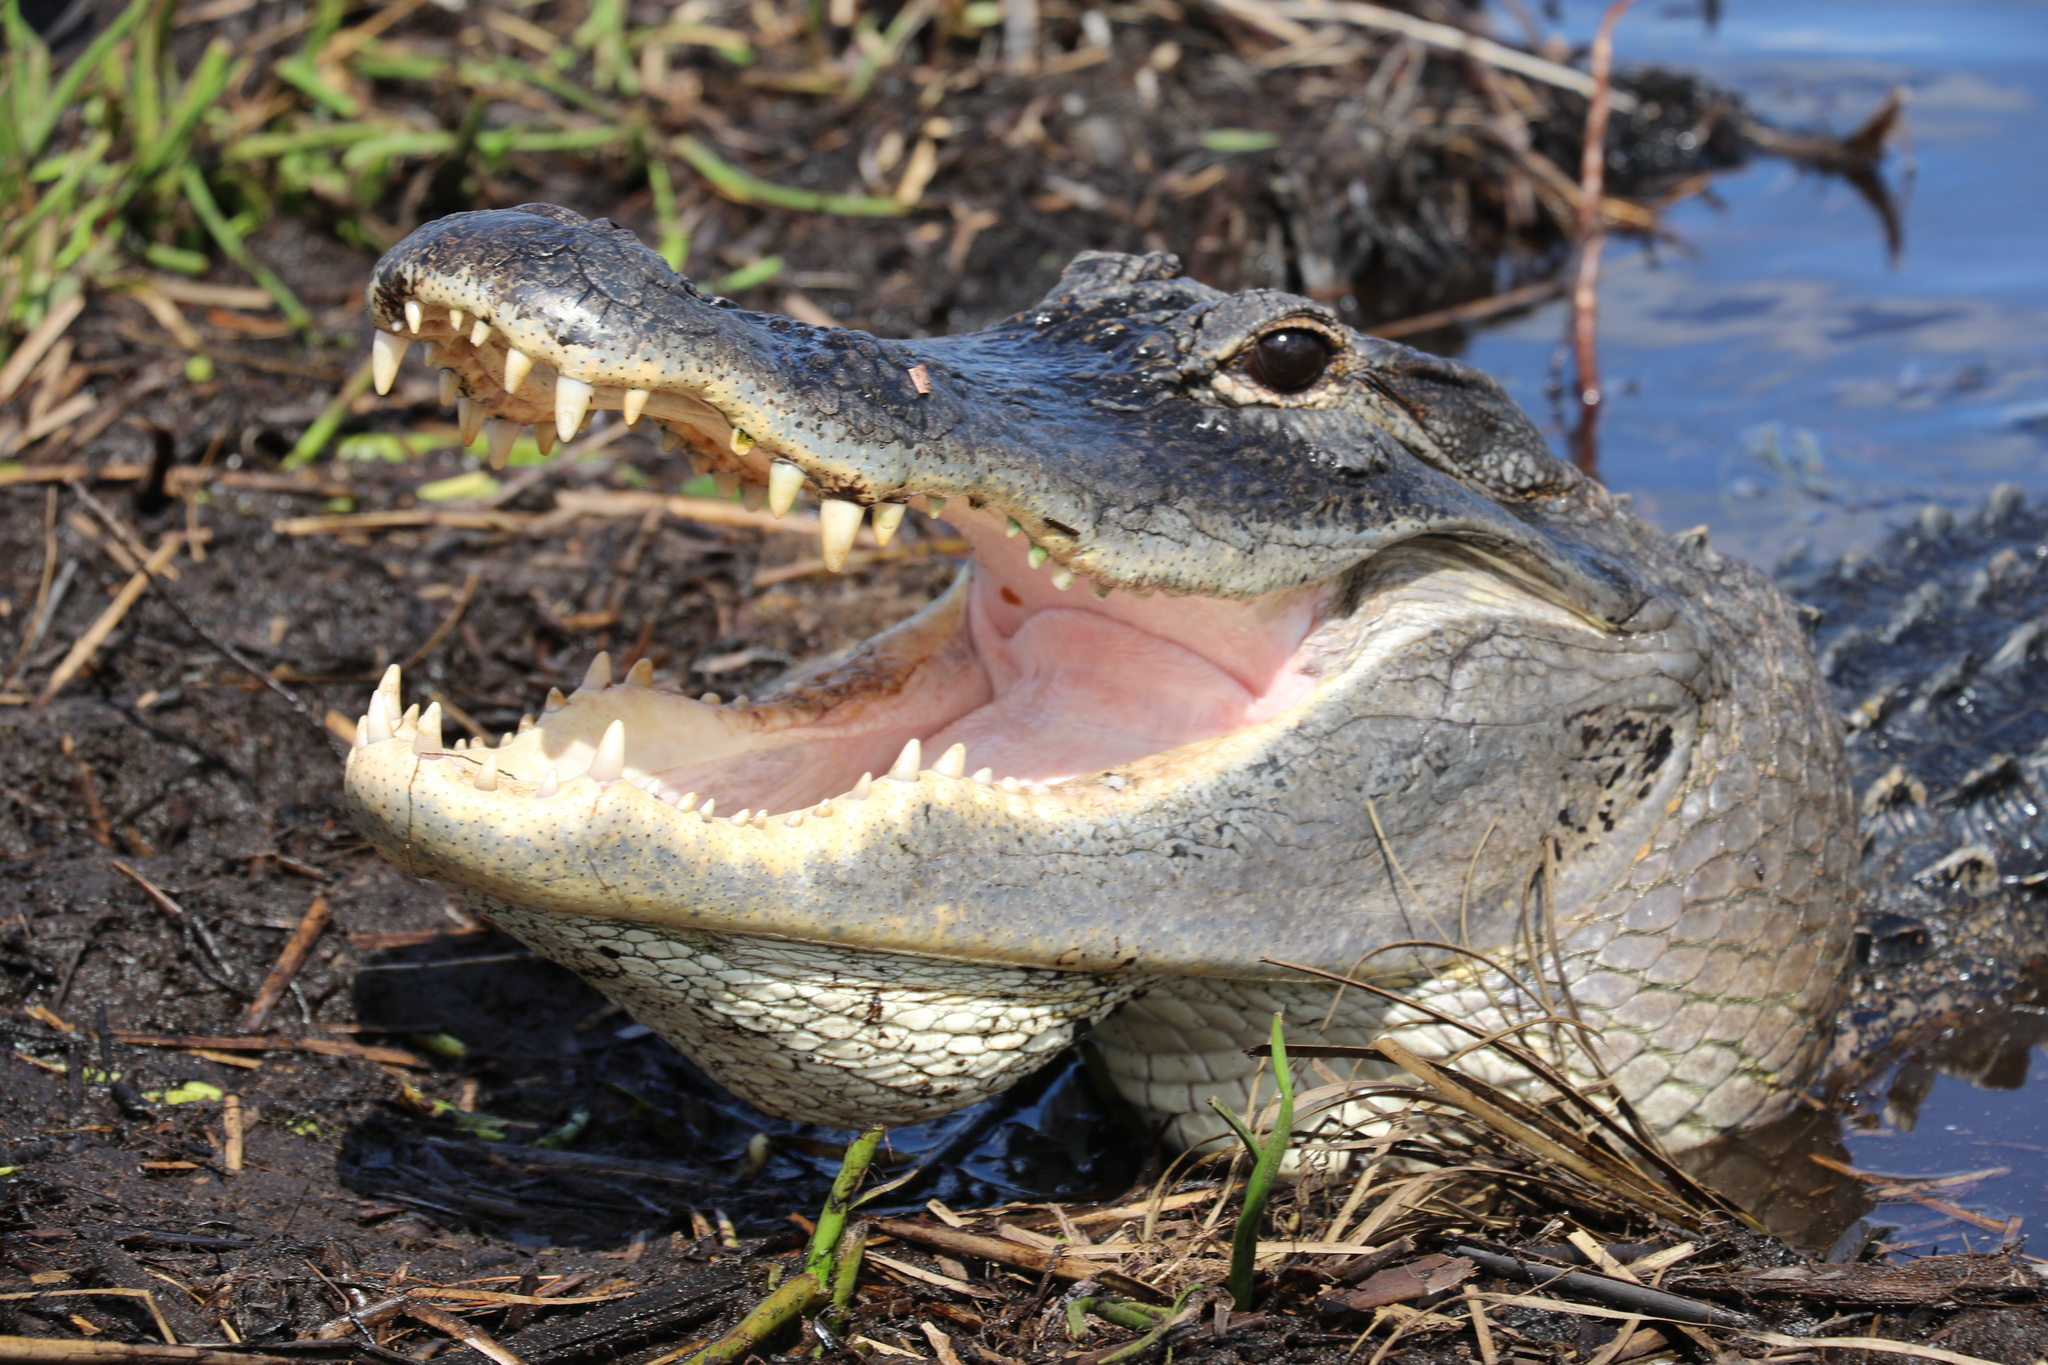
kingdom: Animalia
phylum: Chordata
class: Crocodylia
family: Alligatoridae
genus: Alligator
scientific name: Alligator mississippiensis
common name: American alligator
